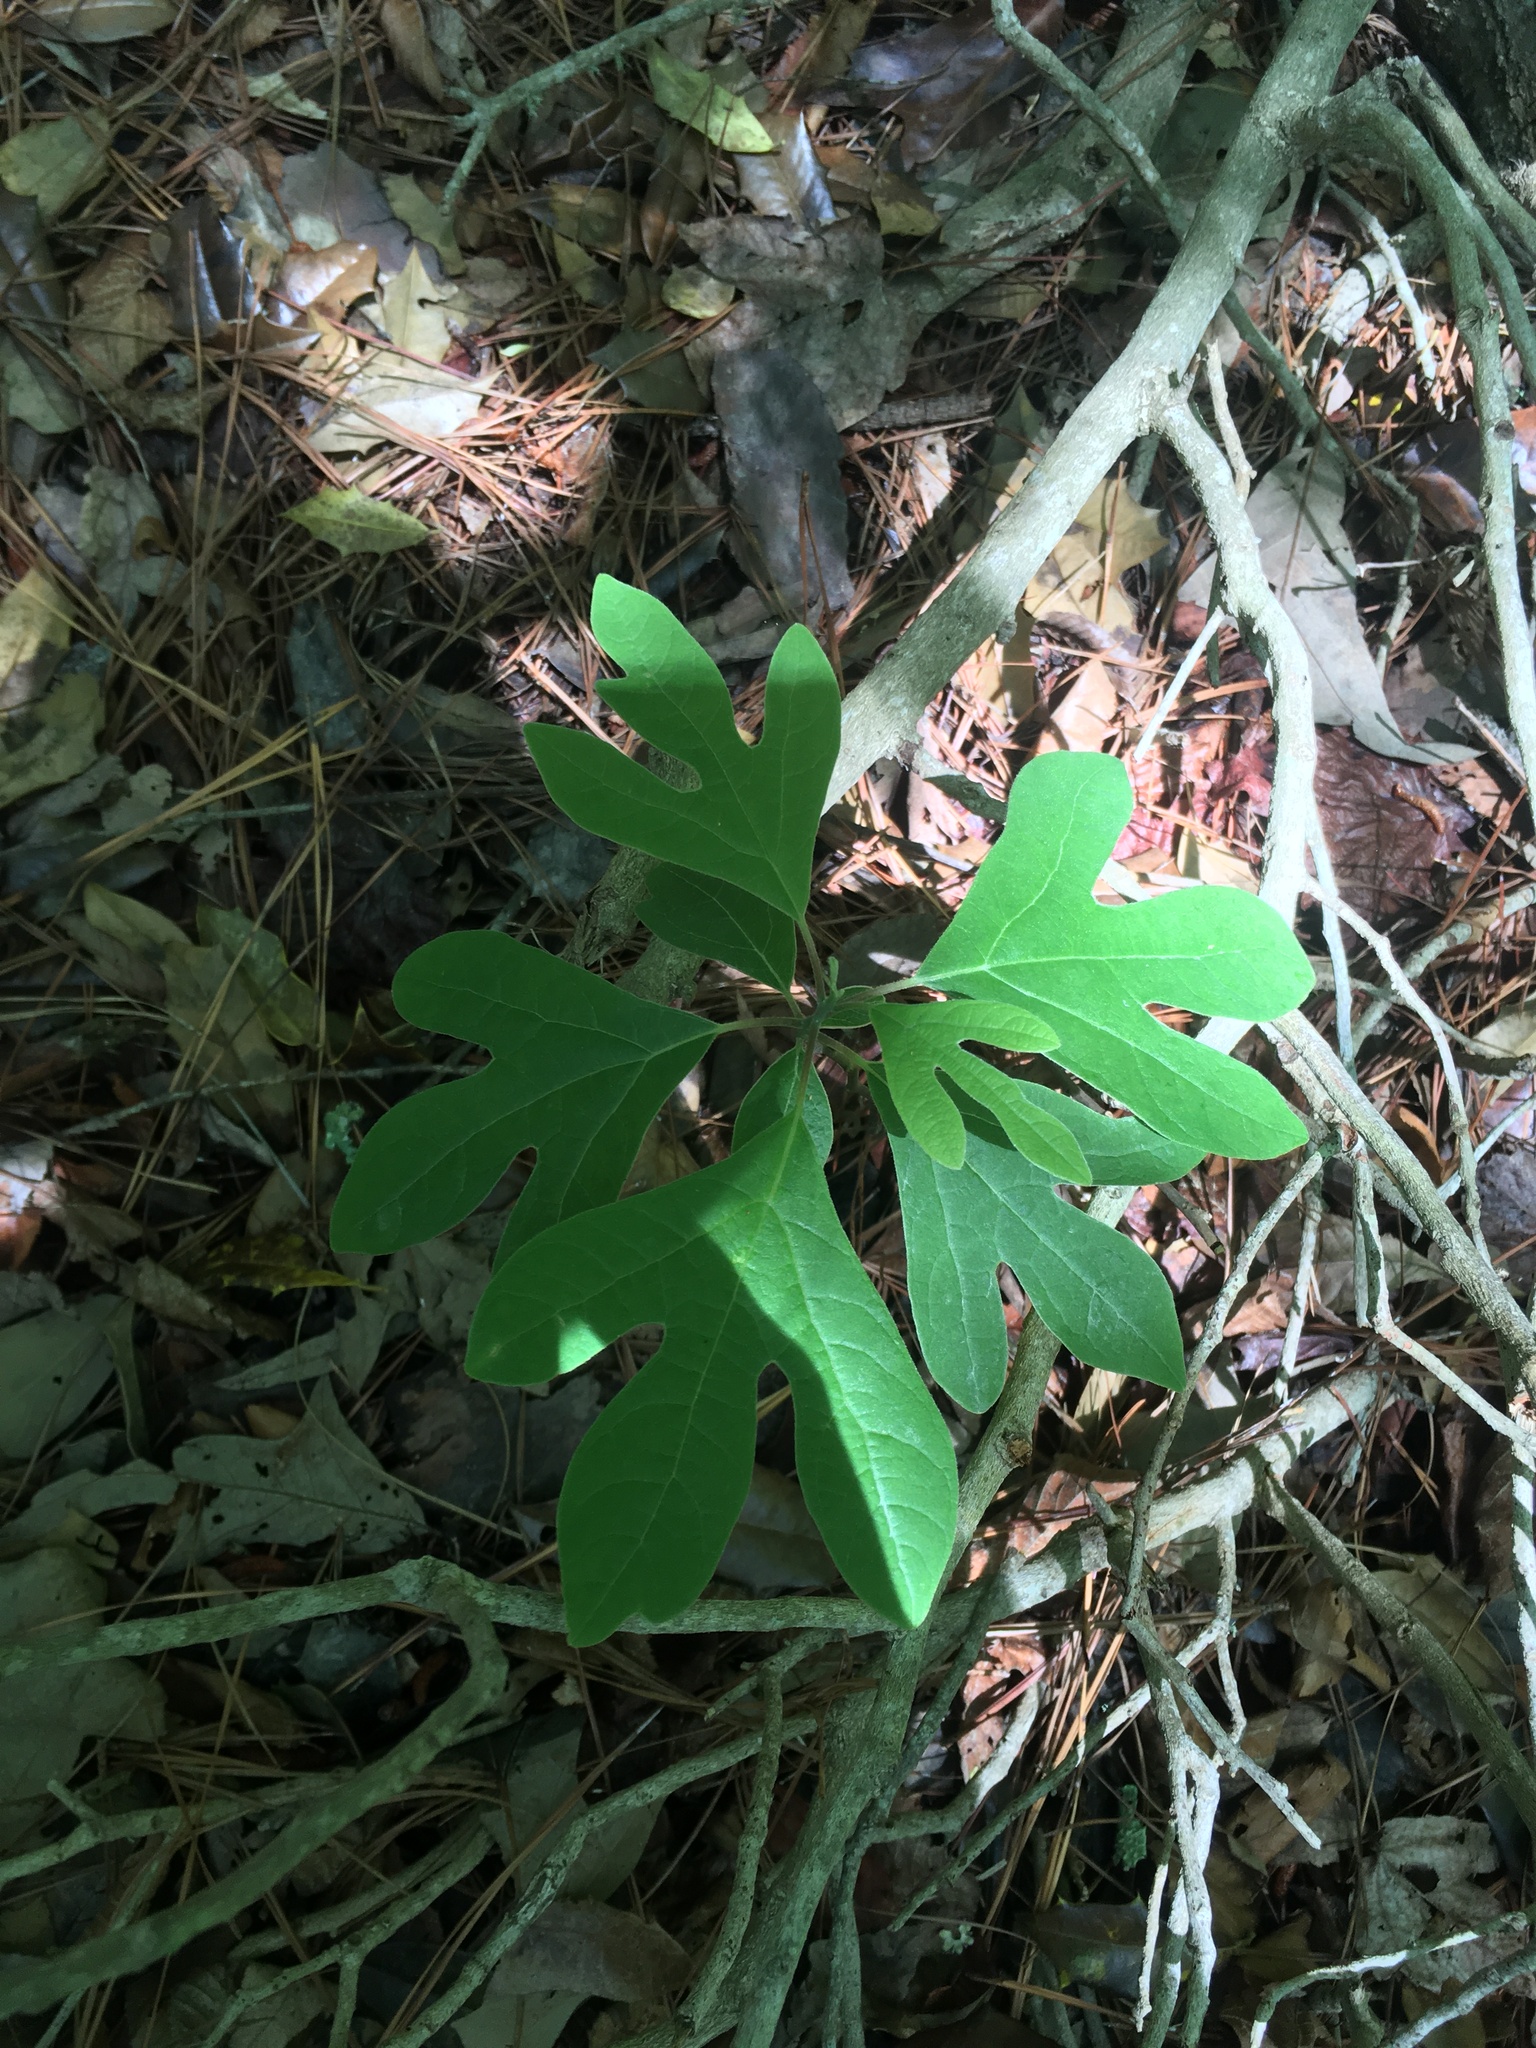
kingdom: Plantae
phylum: Tracheophyta
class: Magnoliopsida
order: Laurales
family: Lauraceae
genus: Sassafras
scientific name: Sassafras albidum
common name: Sassafras
